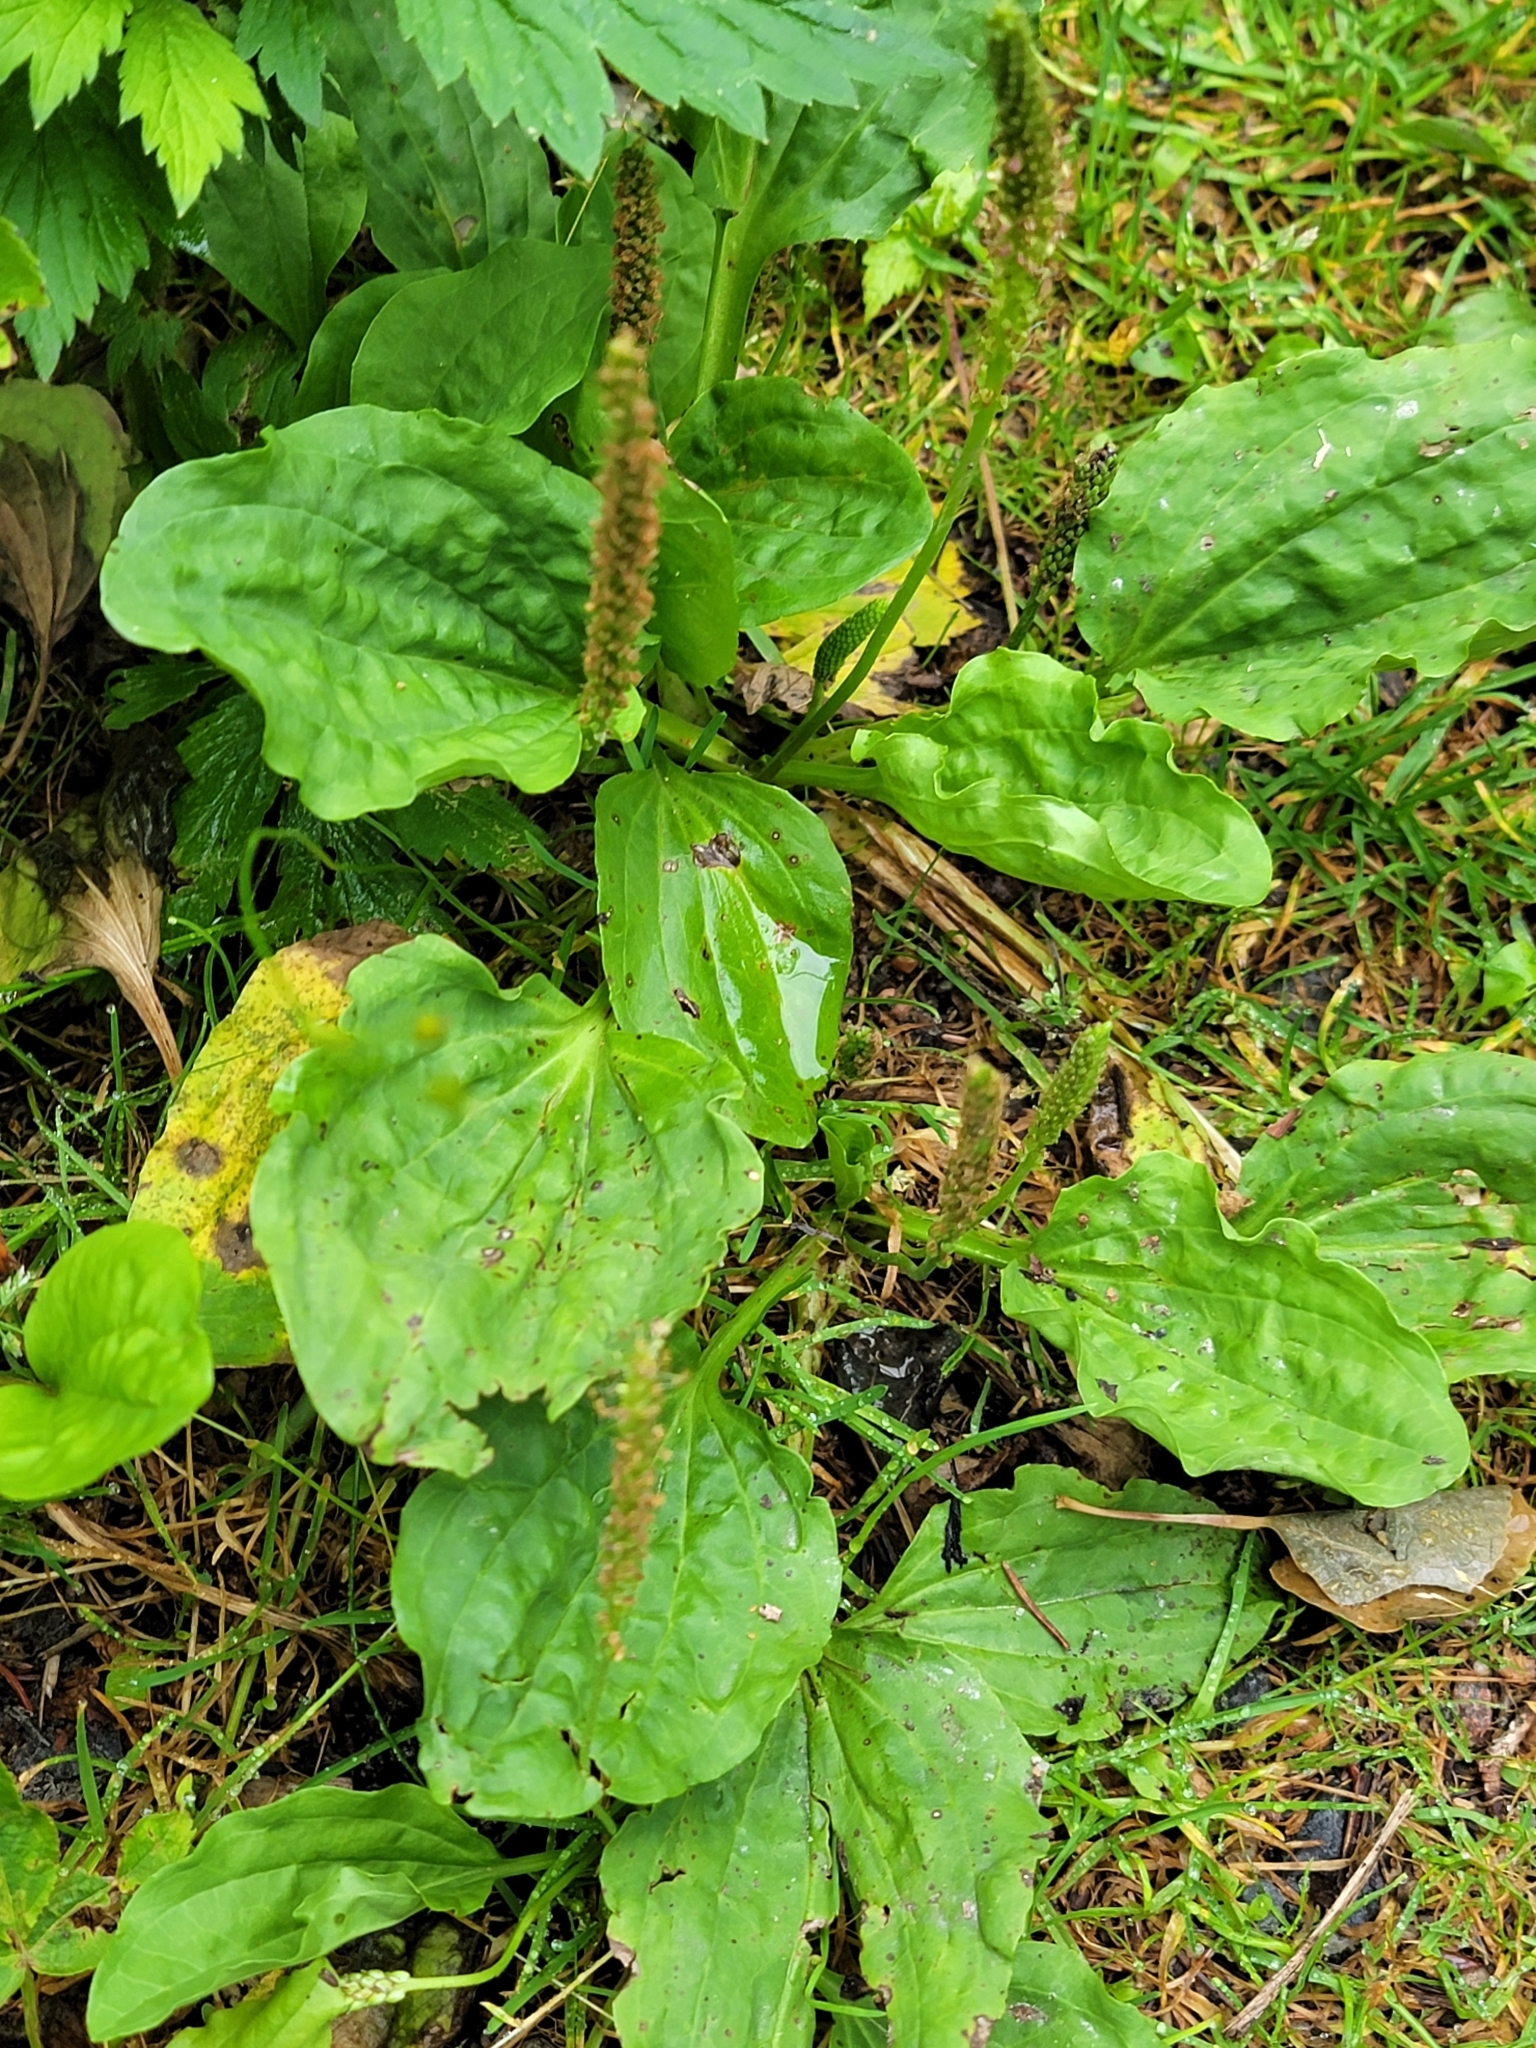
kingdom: Plantae
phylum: Tracheophyta
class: Magnoliopsida
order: Lamiales
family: Plantaginaceae
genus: Plantago
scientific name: Plantago major
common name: Common plantain
